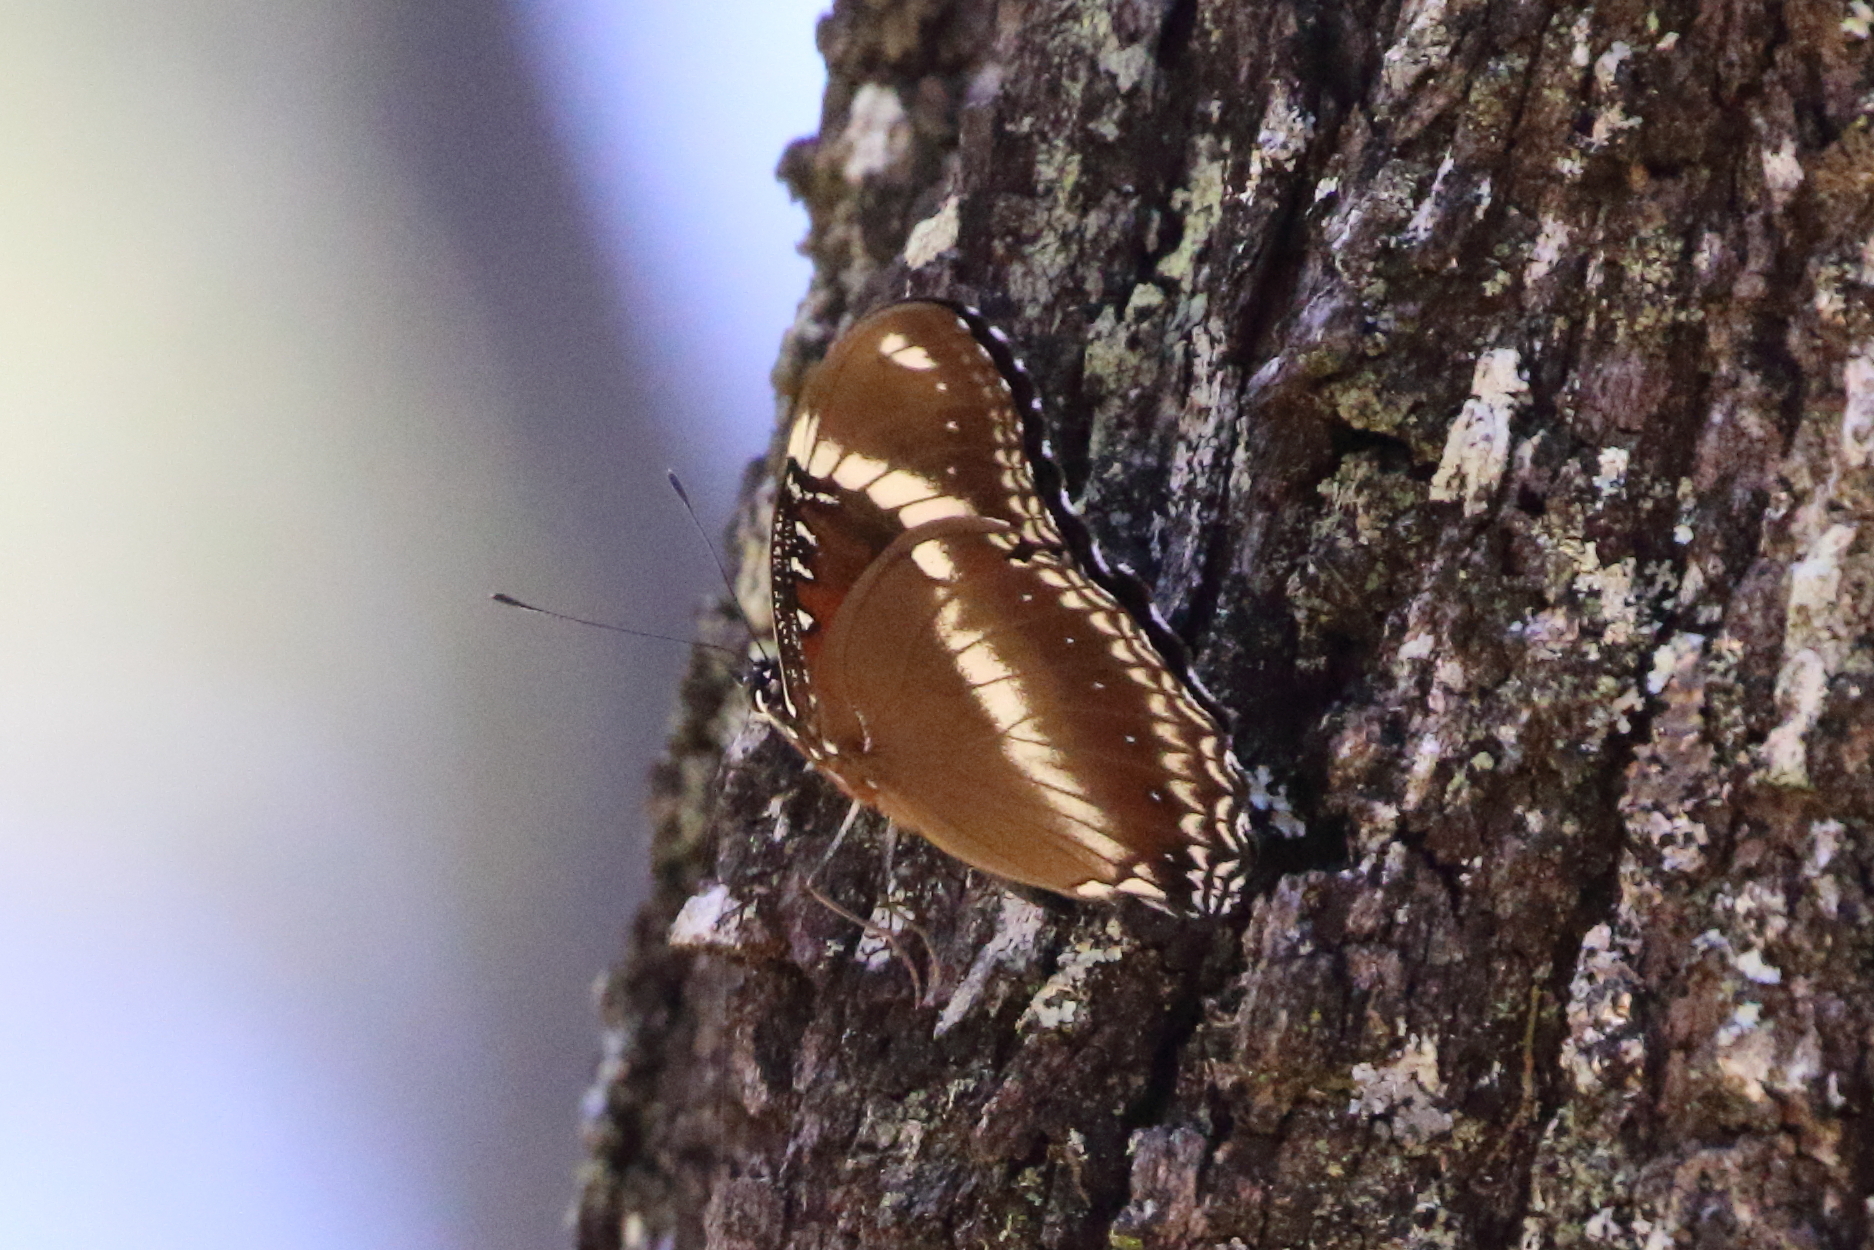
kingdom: Animalia
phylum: Arthropoda
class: Insecta
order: Lepidoptera
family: Nymphalidae
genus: Hypolimnas
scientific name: Hypolimnas bolina
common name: Great eggfly
